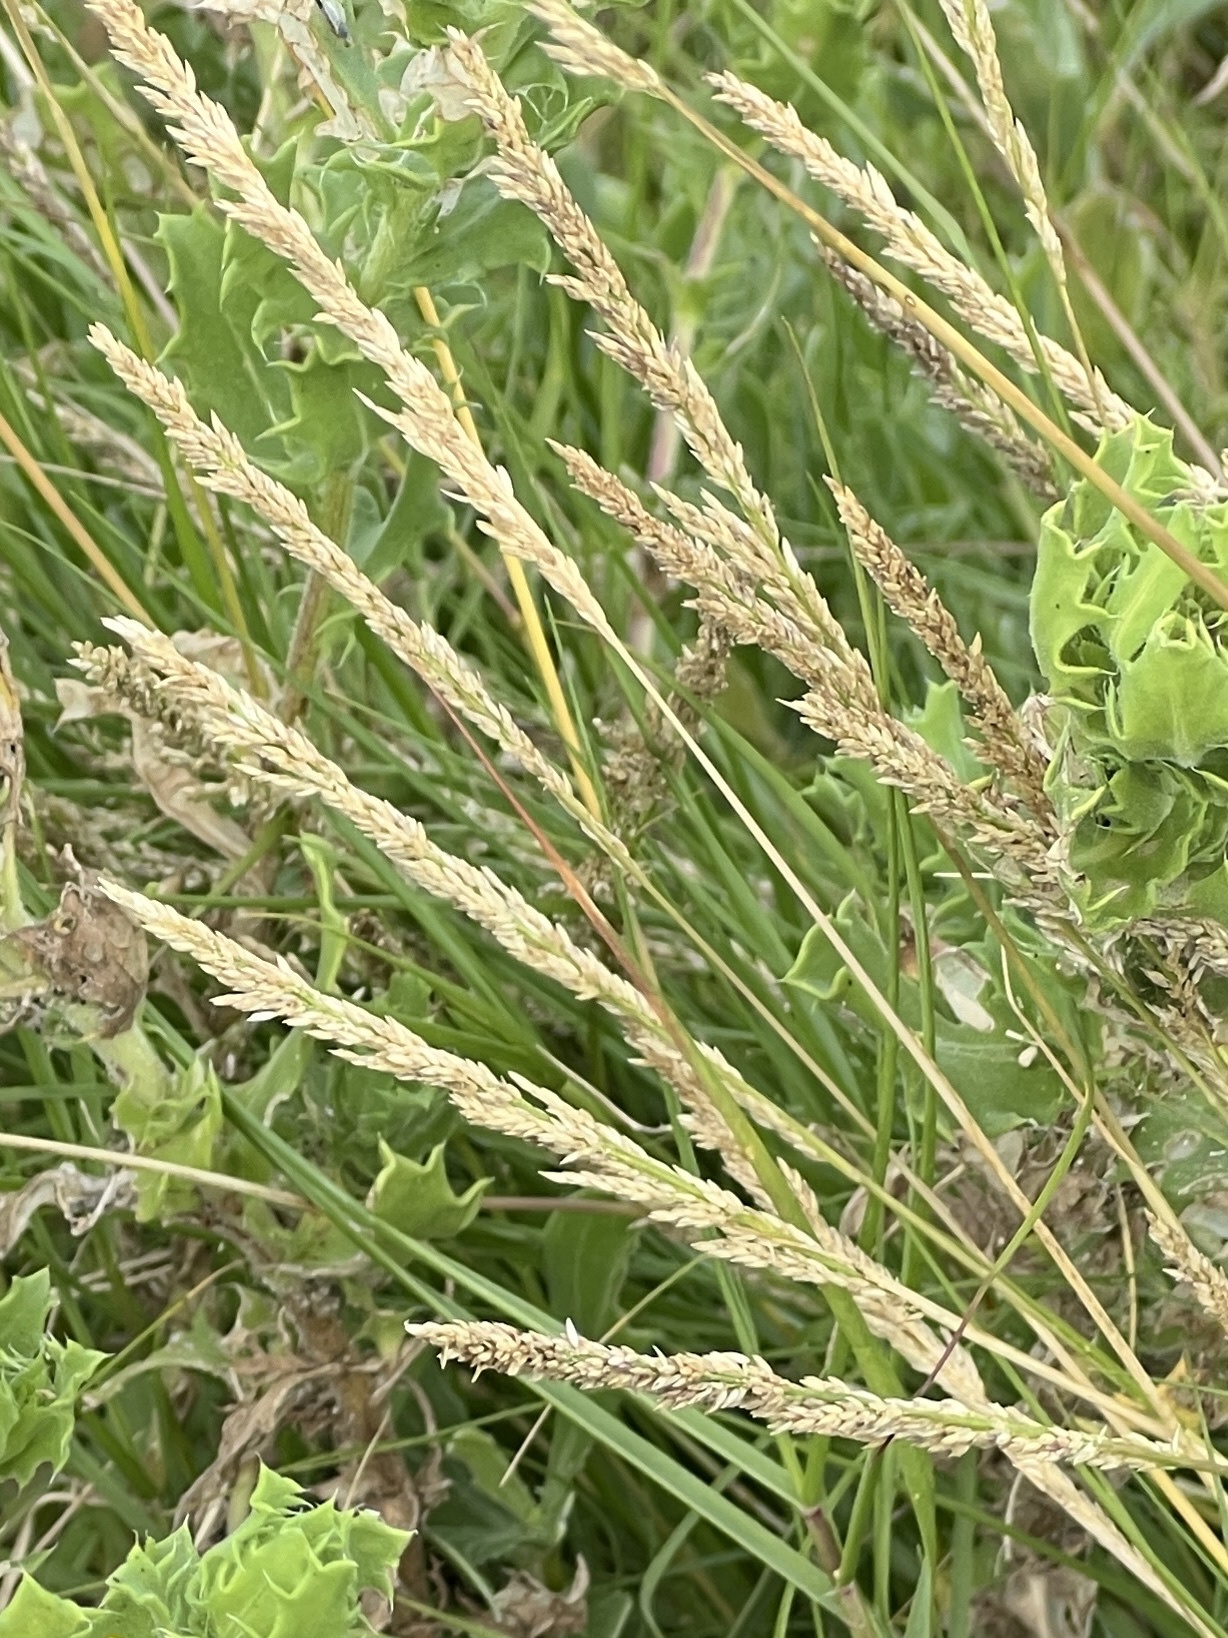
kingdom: Plantae
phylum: Tracheophyta
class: Liliopsida
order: Poales
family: Poaceae
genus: Sporobolus
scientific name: Sporobolus virginicus
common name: Beach dropseed
